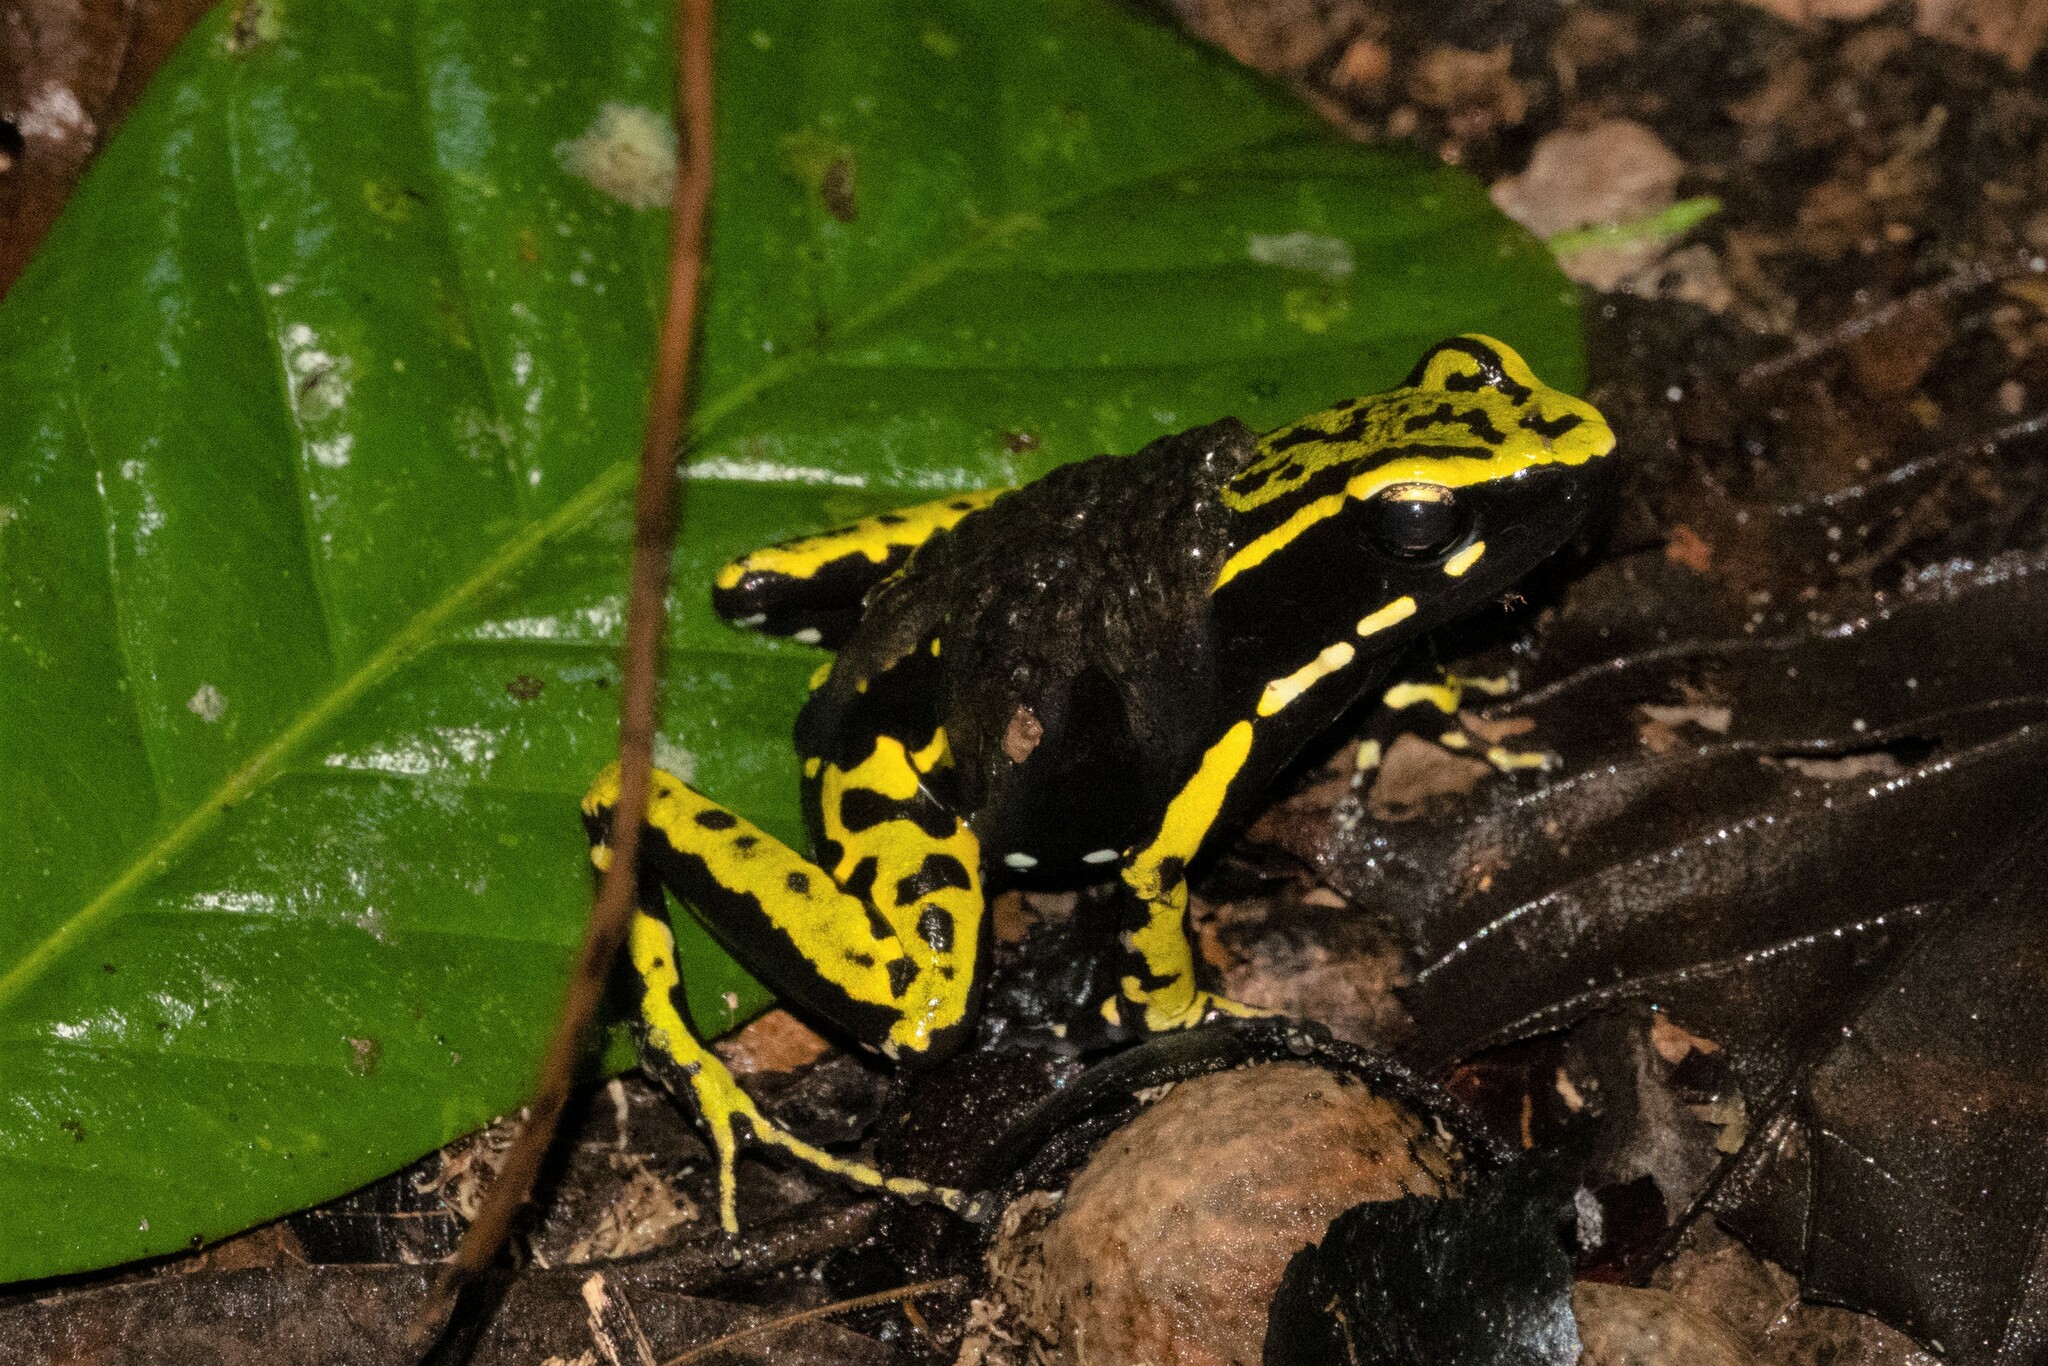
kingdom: Animalia
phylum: Chordata
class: Amphibia
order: Anura
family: Dendrobatidae
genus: Ameerega
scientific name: Ameerega trivittata
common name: Three-striped arrow-poison frog
